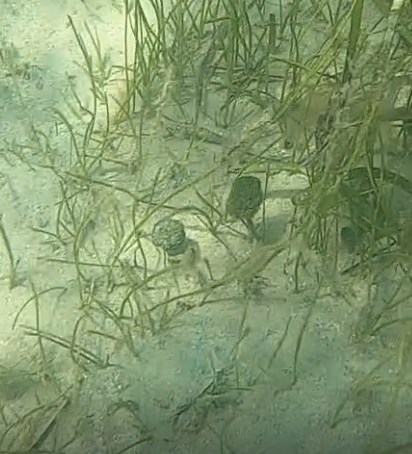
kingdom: Plantae
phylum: Chlorophyta
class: Ulvophyceae
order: Bryopsidales
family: Udoteaceae
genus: Penicillus
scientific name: Penicillus capitatus
